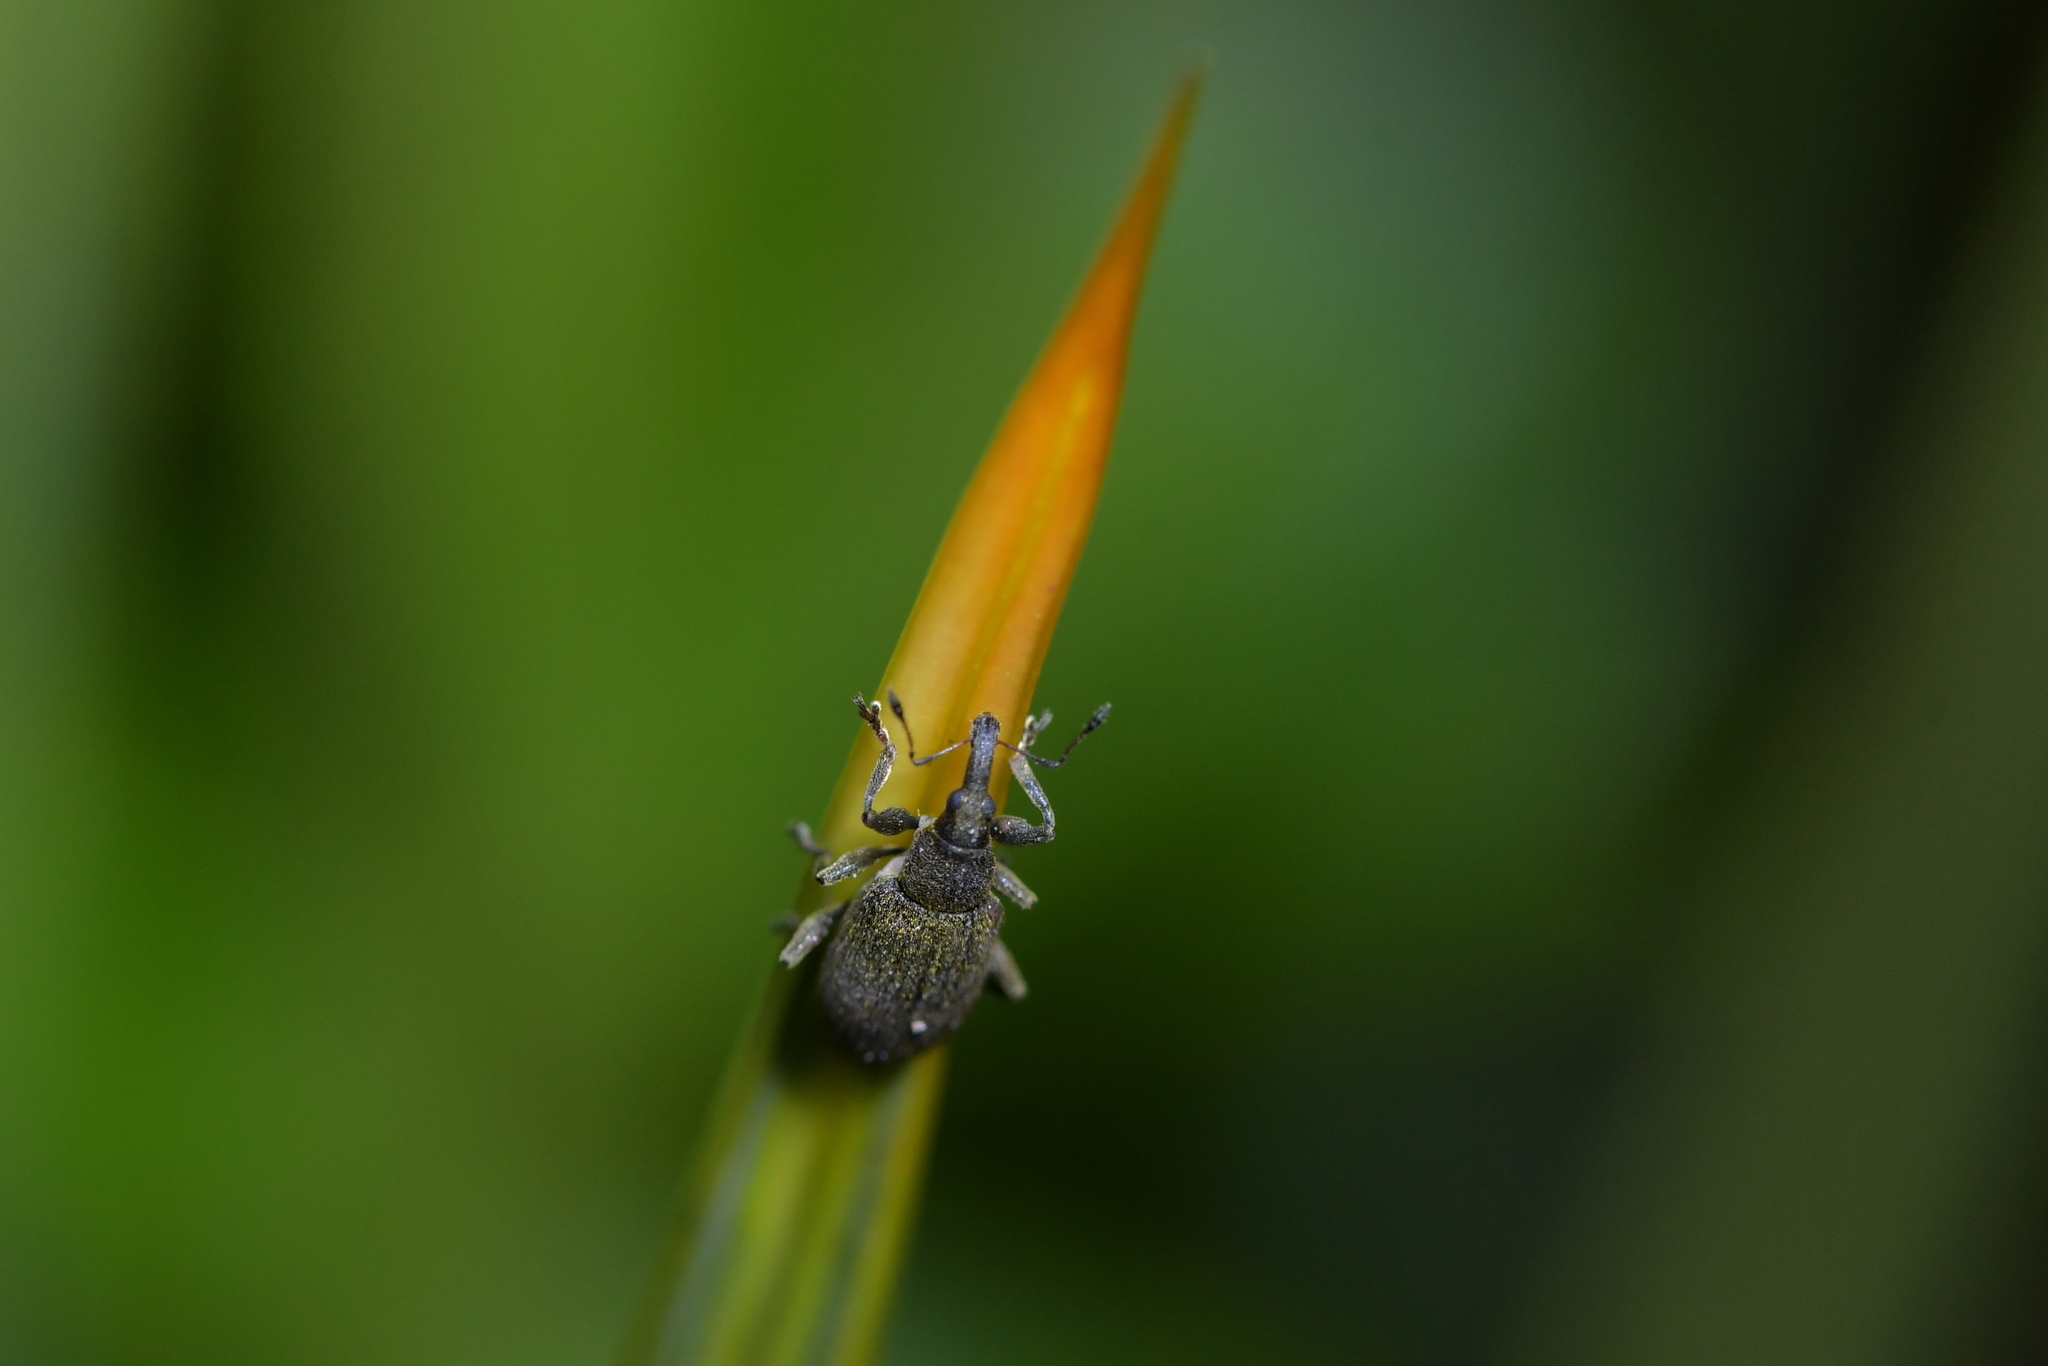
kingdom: Animalia
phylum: Arthropoda
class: Insecta
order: Coleoptera
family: Curculionidae
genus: Eugnomus
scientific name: Eugnomus durvillei
